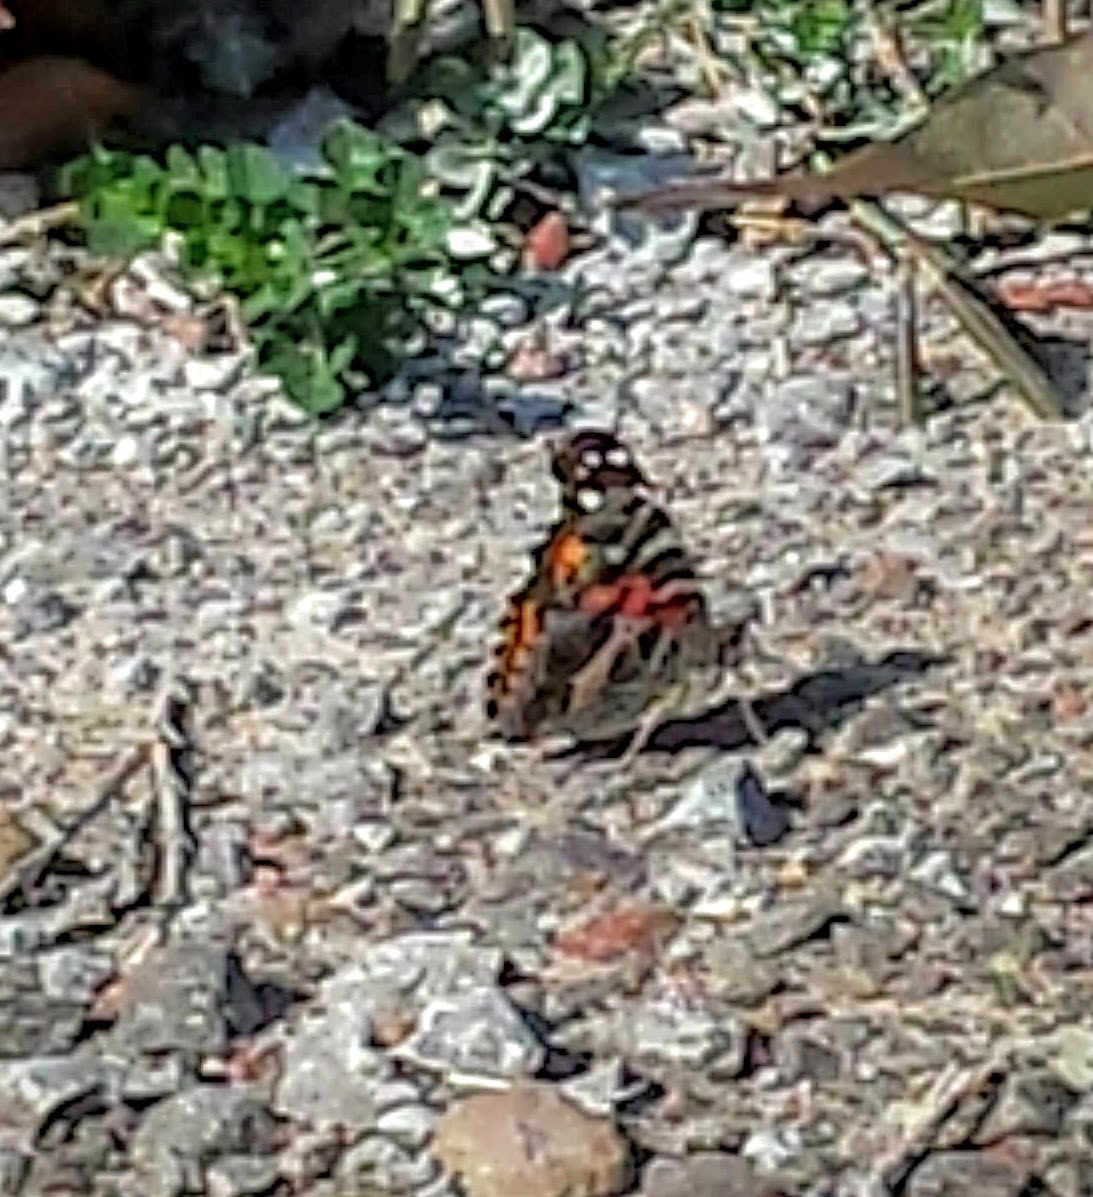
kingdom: Animalia
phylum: Arthropoda
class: Insecta
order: Lepidoptera
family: Nymphalidae
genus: Vanessa
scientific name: Vanessa virginiensis
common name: American lady
